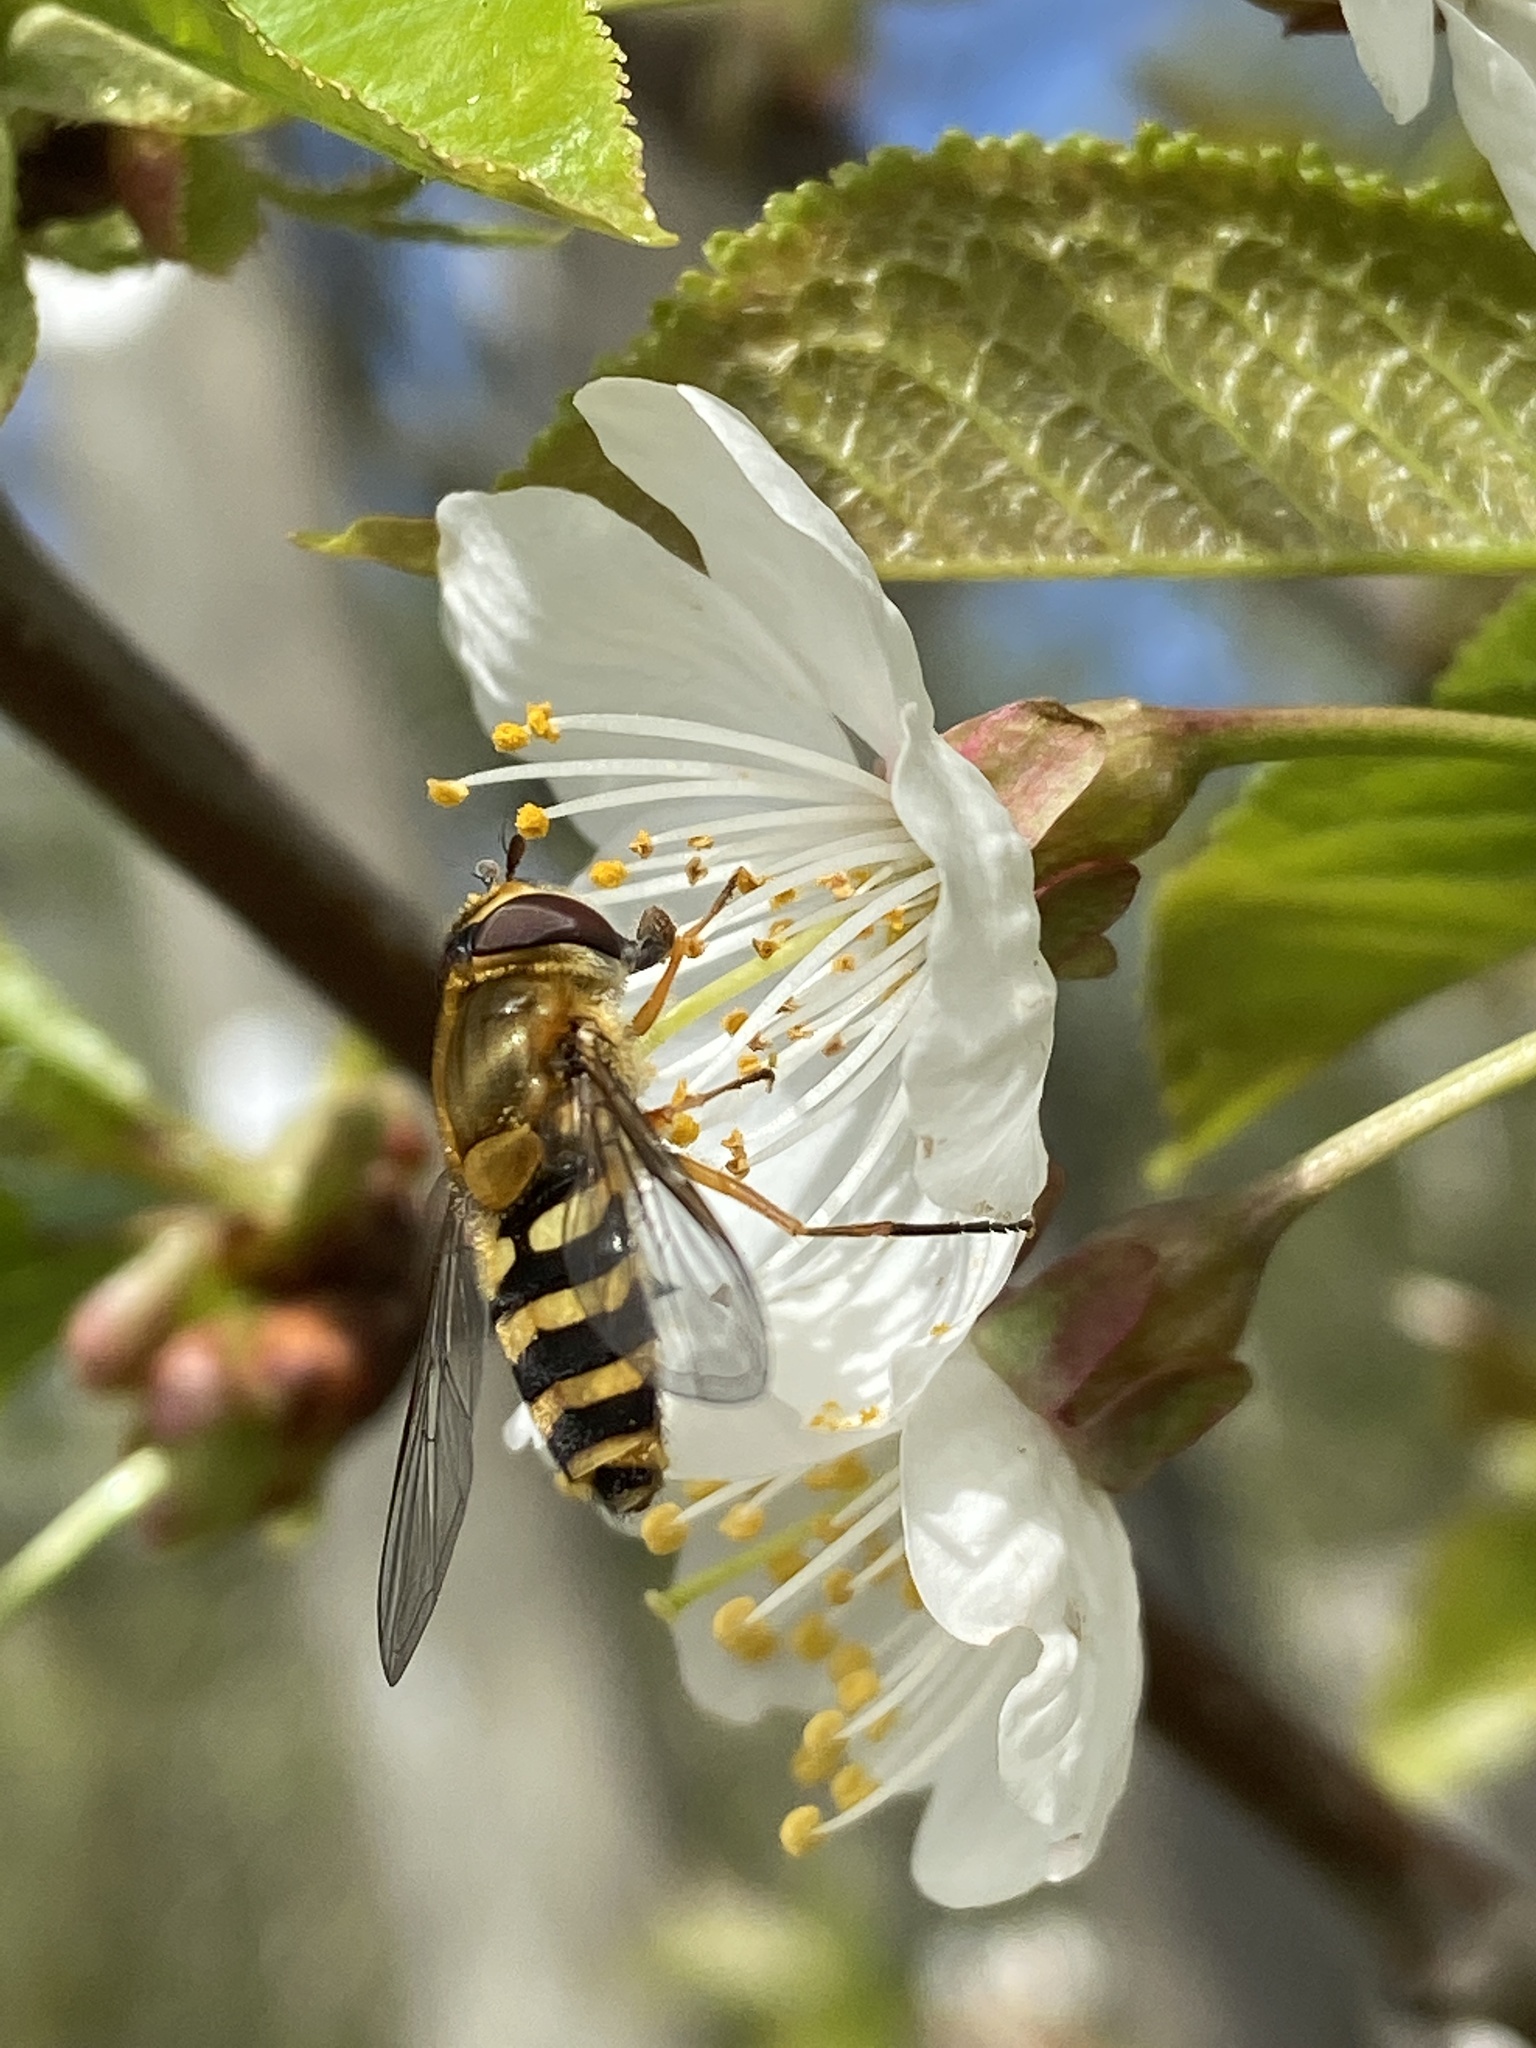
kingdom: Animalia
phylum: Arthropoda
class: Insecta
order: Diptera
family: Syrphidae
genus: Syrphus
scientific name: Syrphus ribesii
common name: Common flower fly
